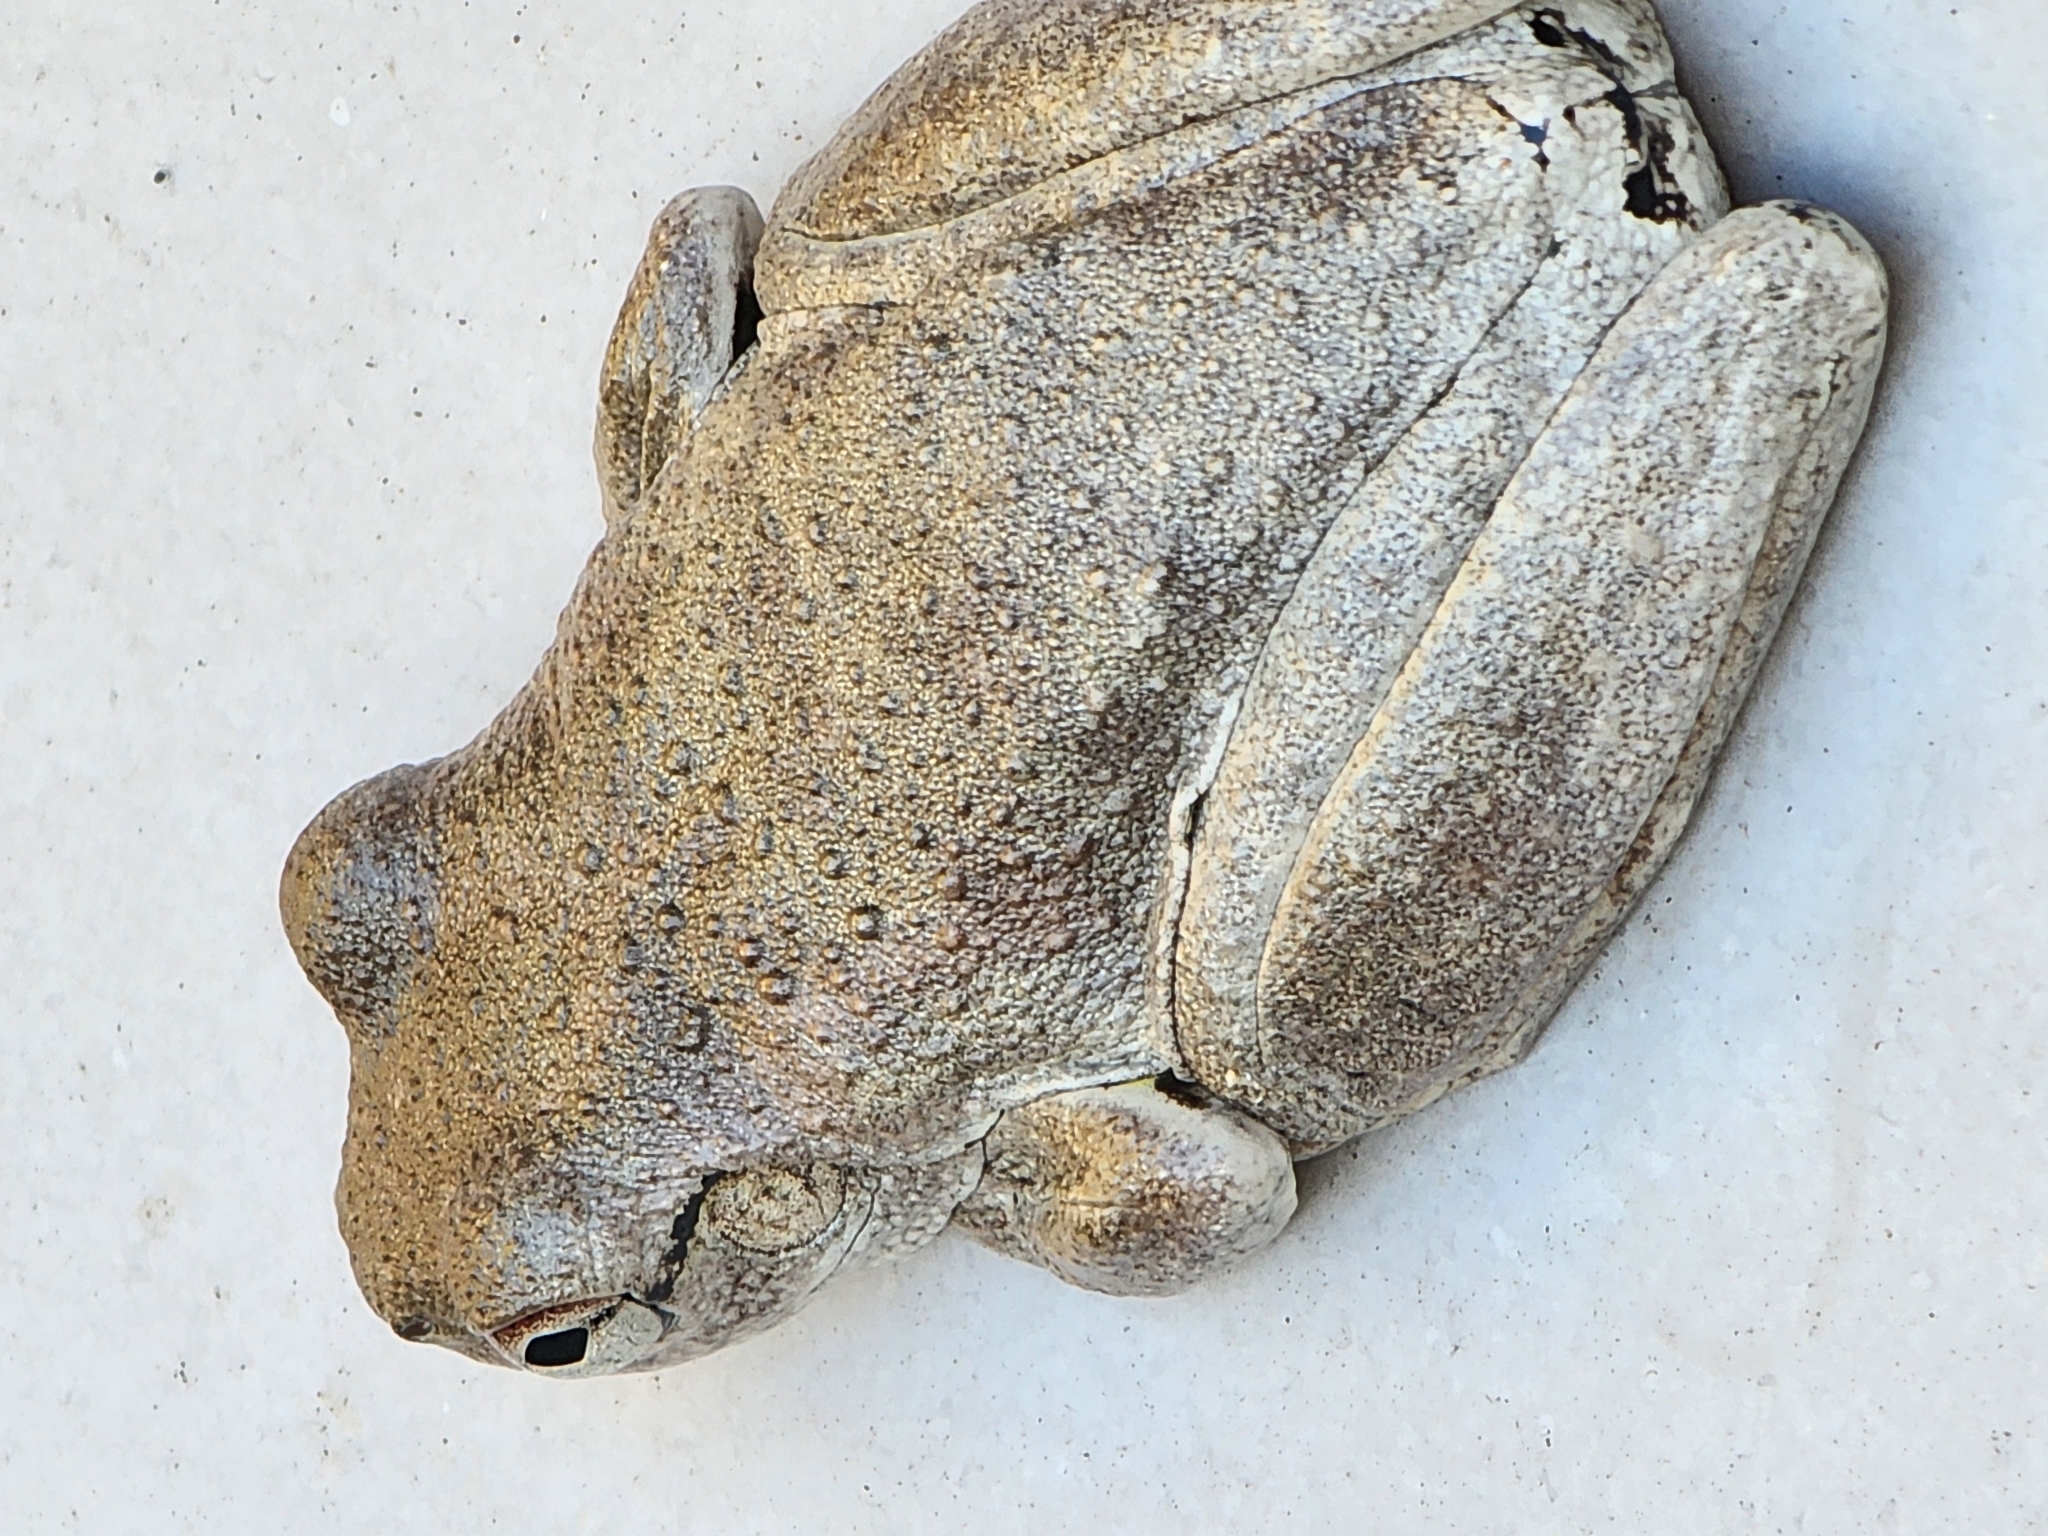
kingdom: Animalia
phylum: Chordata
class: Amphibia
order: Anura
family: Pelodryadidae
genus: Litoria
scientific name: Litoria rothii
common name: Roth’s tree frog
